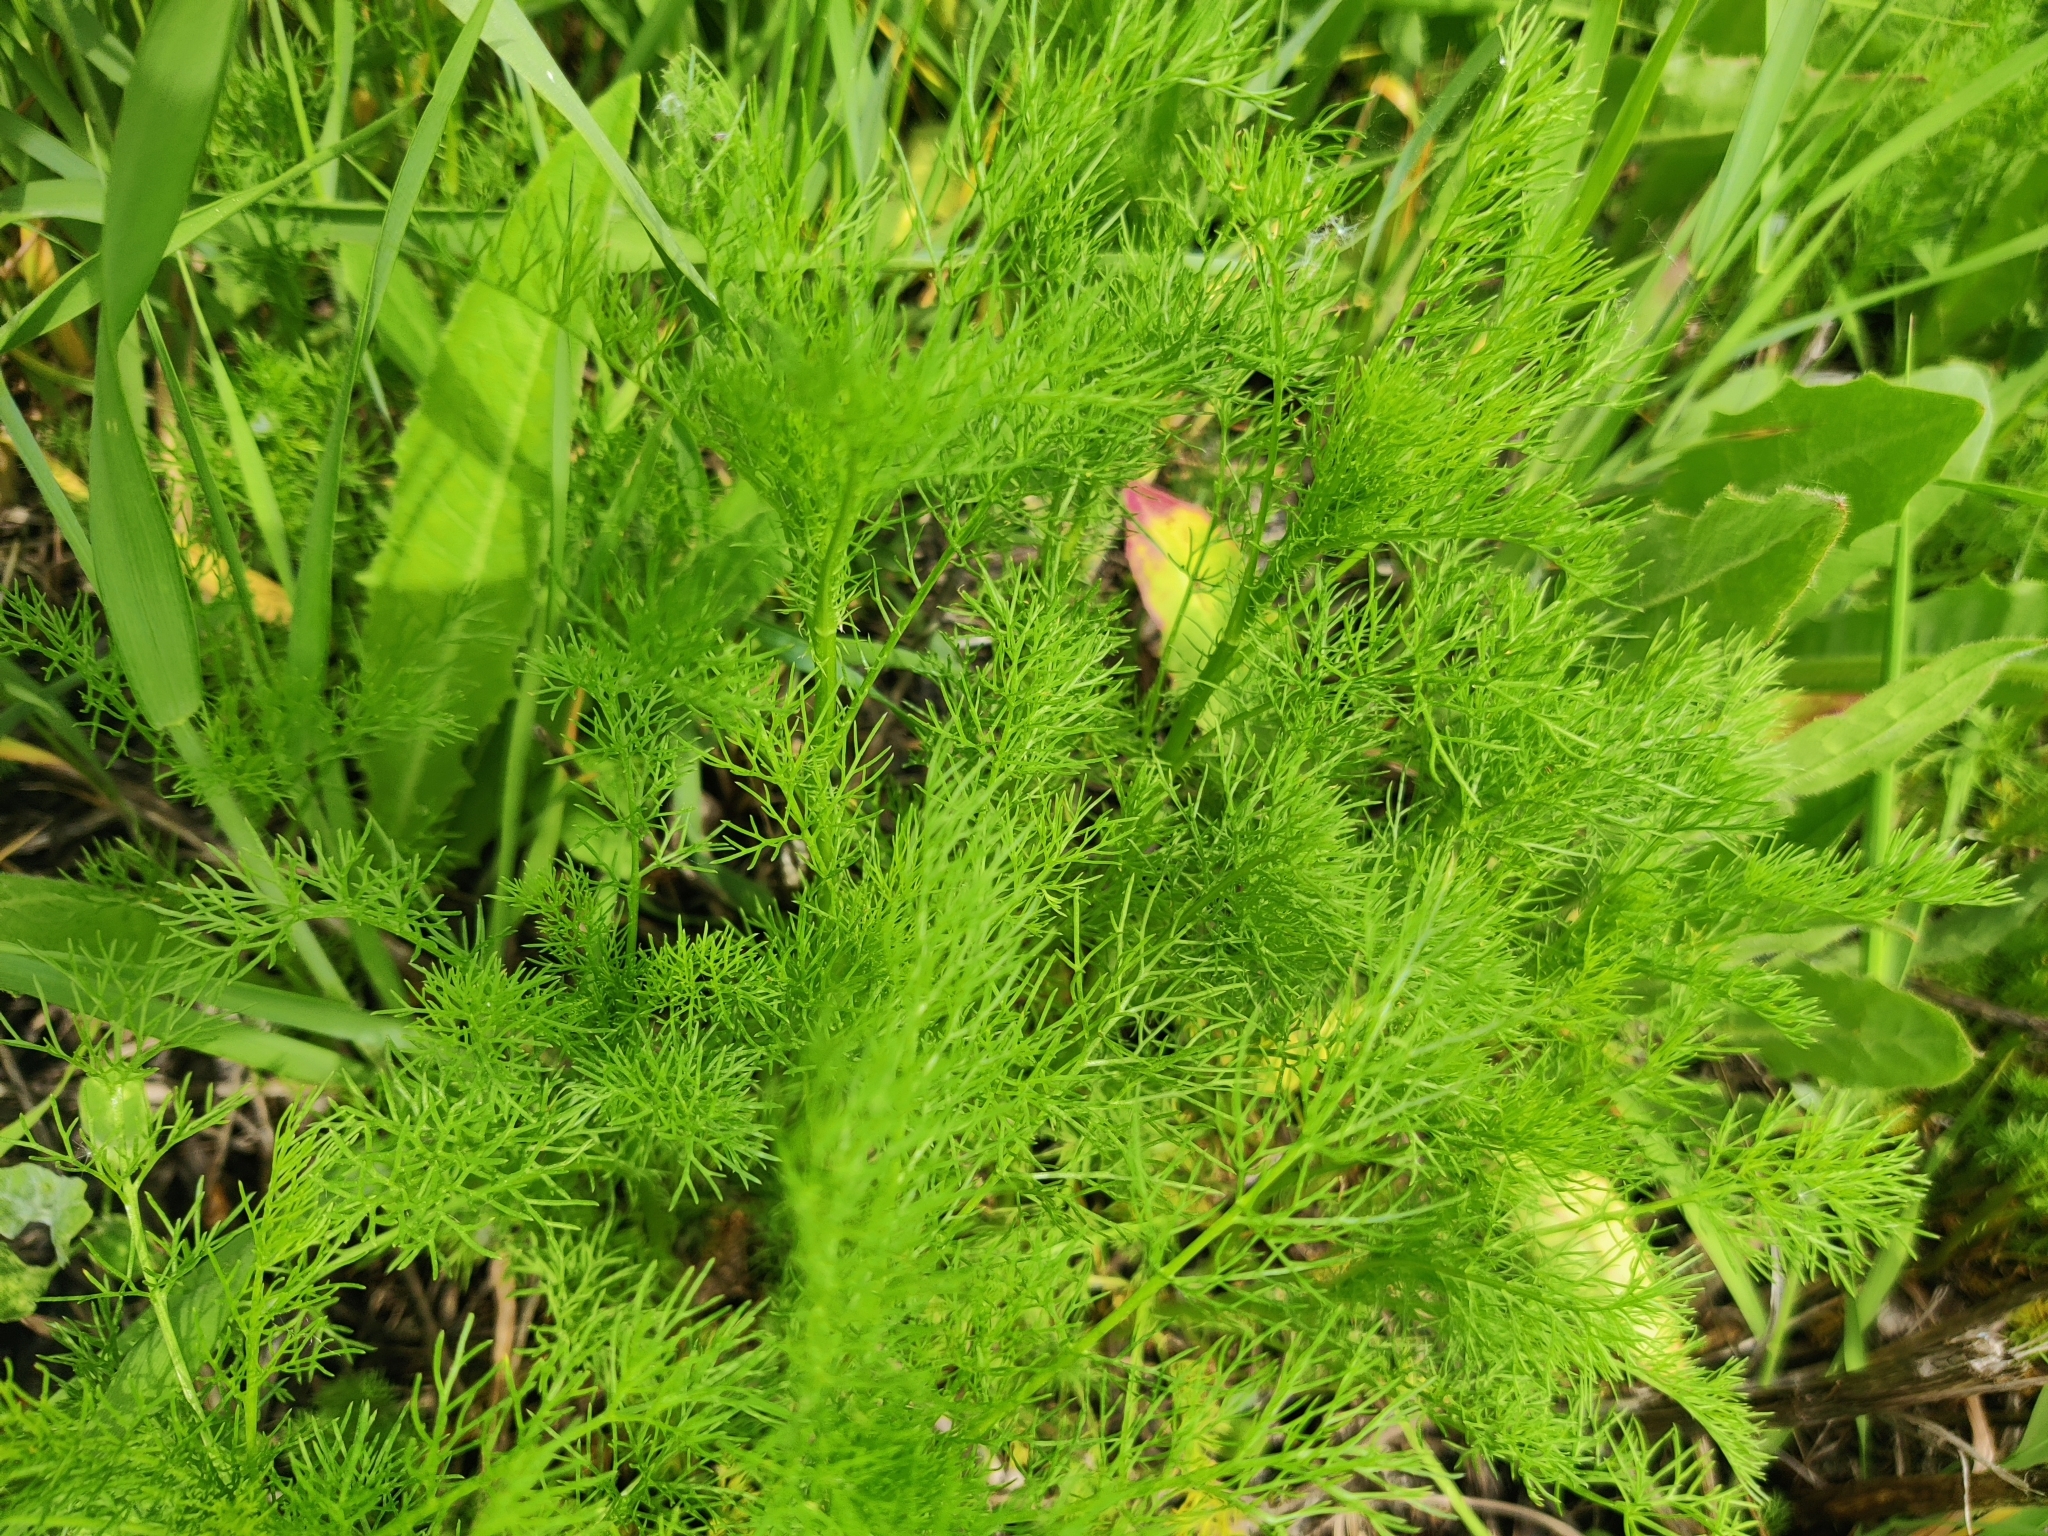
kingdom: Plantae
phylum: Tracheophyta
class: Magnoliopsida
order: Asterales
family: Asteraceae
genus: Tripleurospermum
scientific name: Tripleurospermum inodorum
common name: Scentless mayweed
